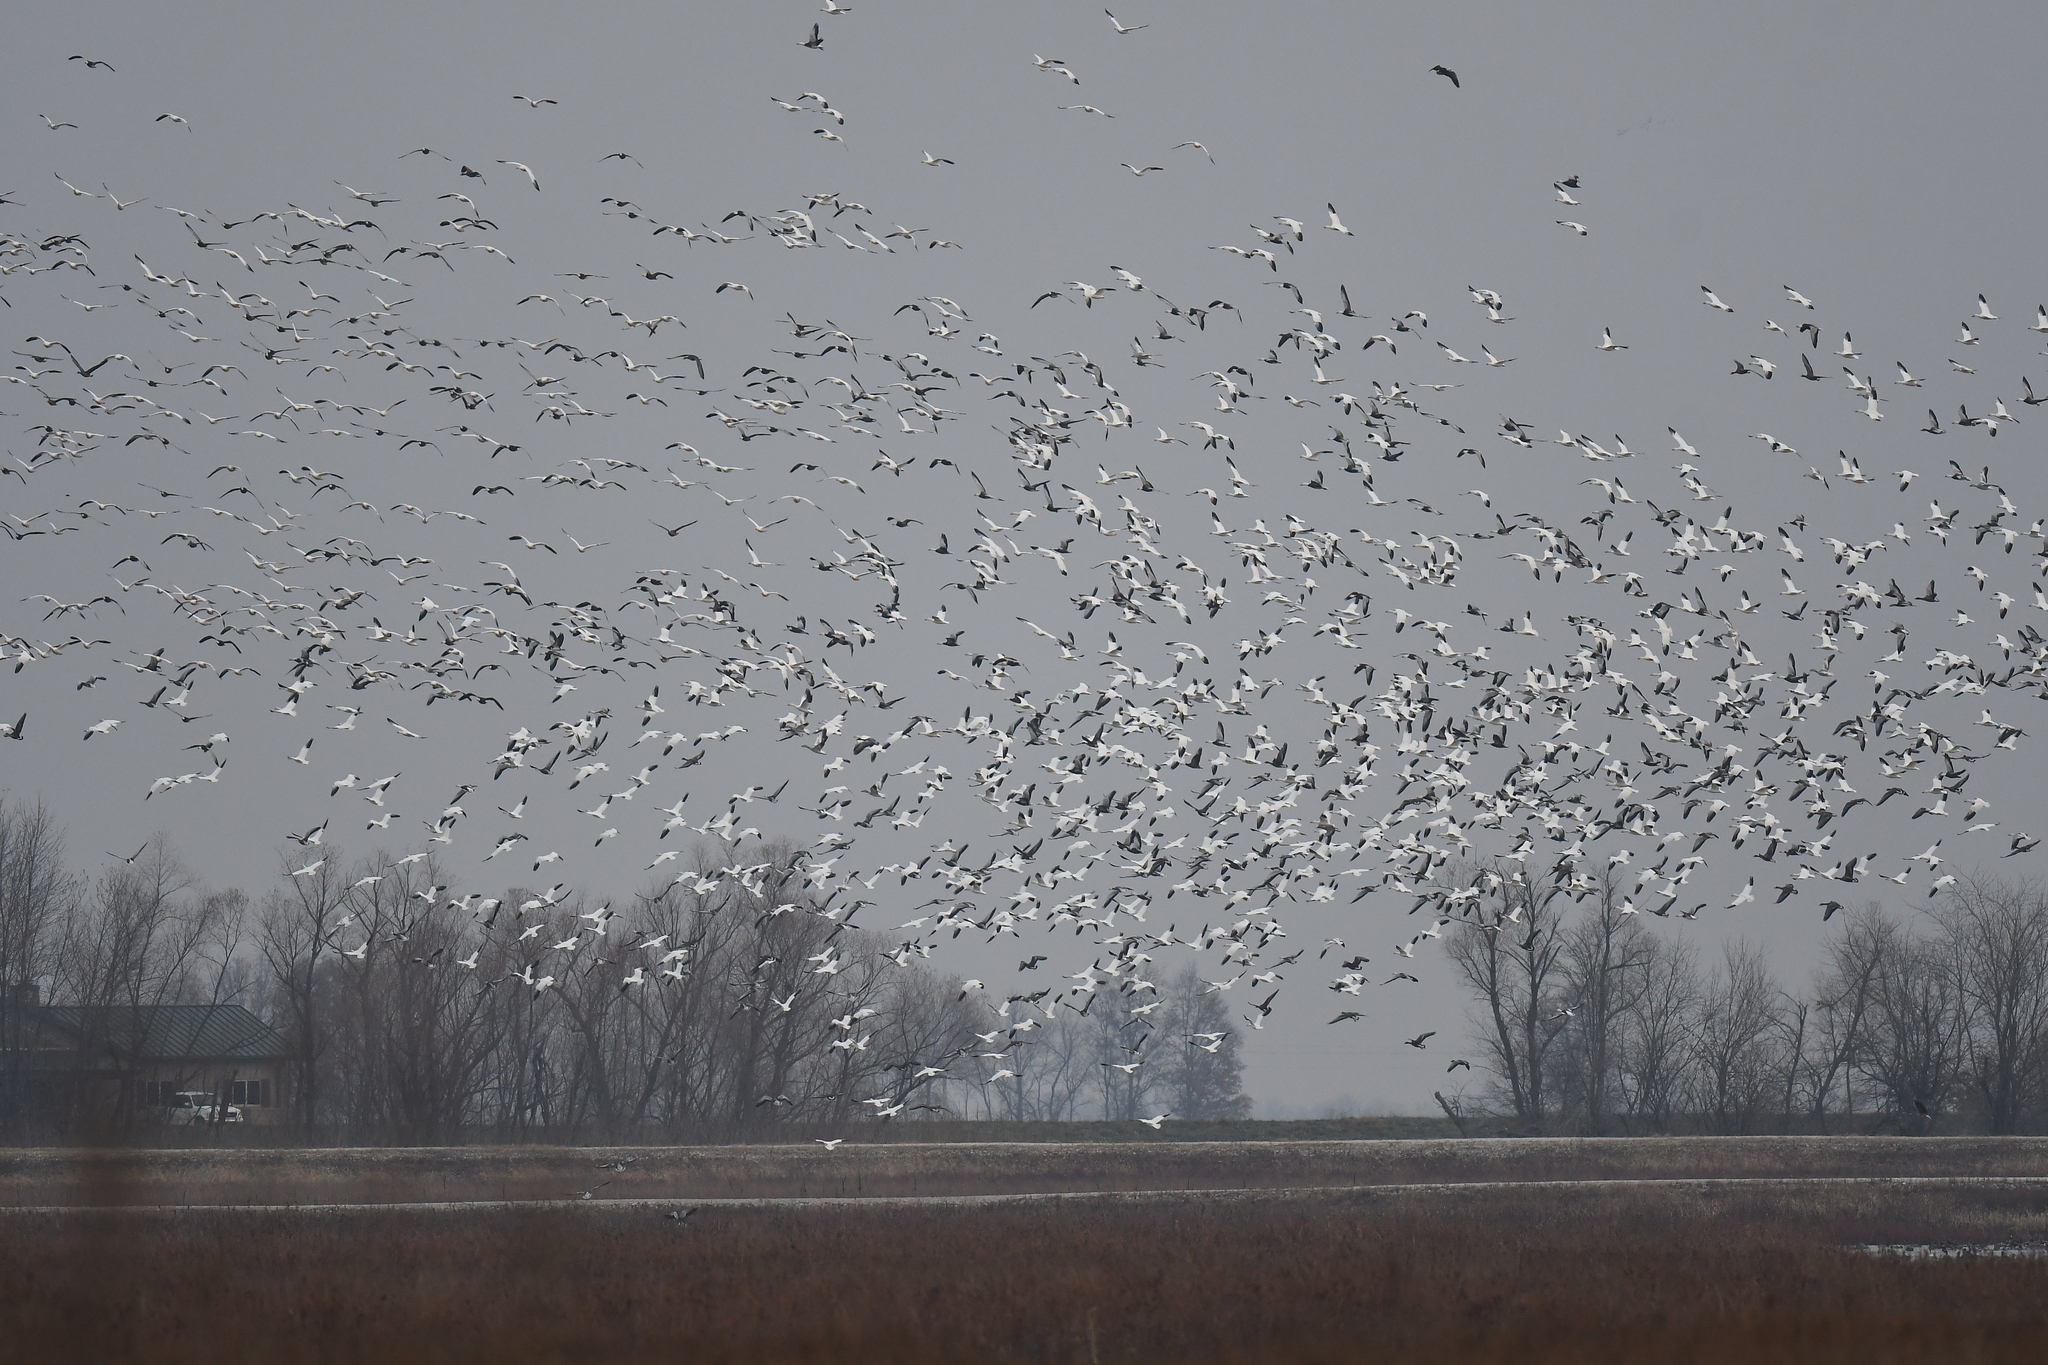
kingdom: Animalia
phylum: Chordata
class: Aves
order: Anseriformes
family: Anatidae
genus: Anser
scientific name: Anser caerulescens
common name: Snow goose
